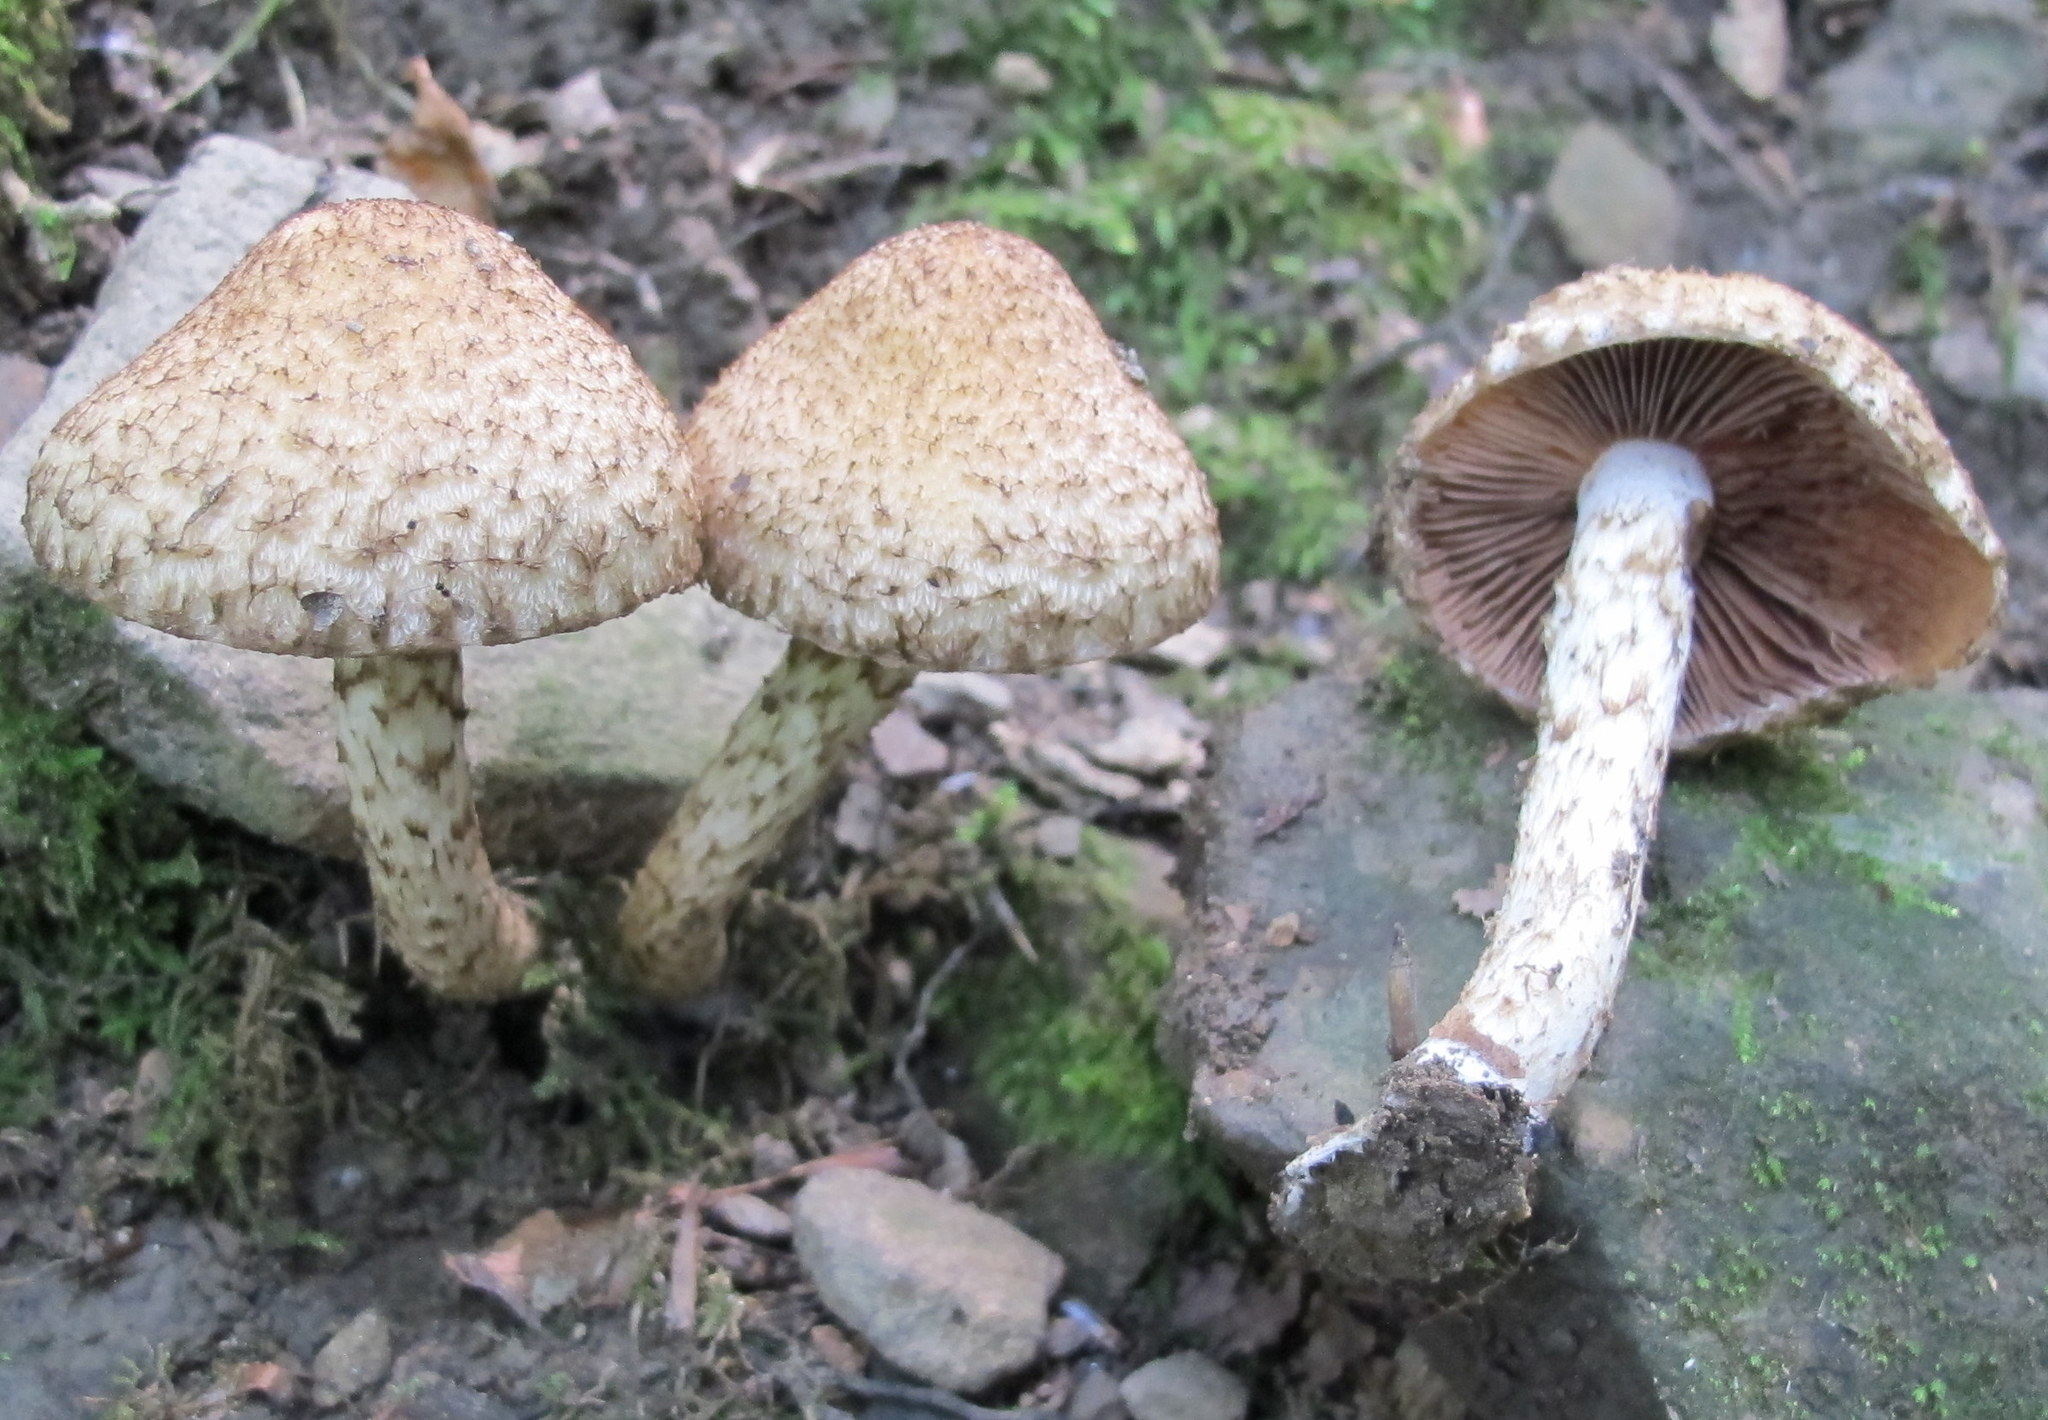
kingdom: Fungi
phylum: Basidiomycota
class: Agaricomycetes
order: Agaricales
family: Psathyrellaceae
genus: Lacrymaria
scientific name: Lacrymaria echiniceps
